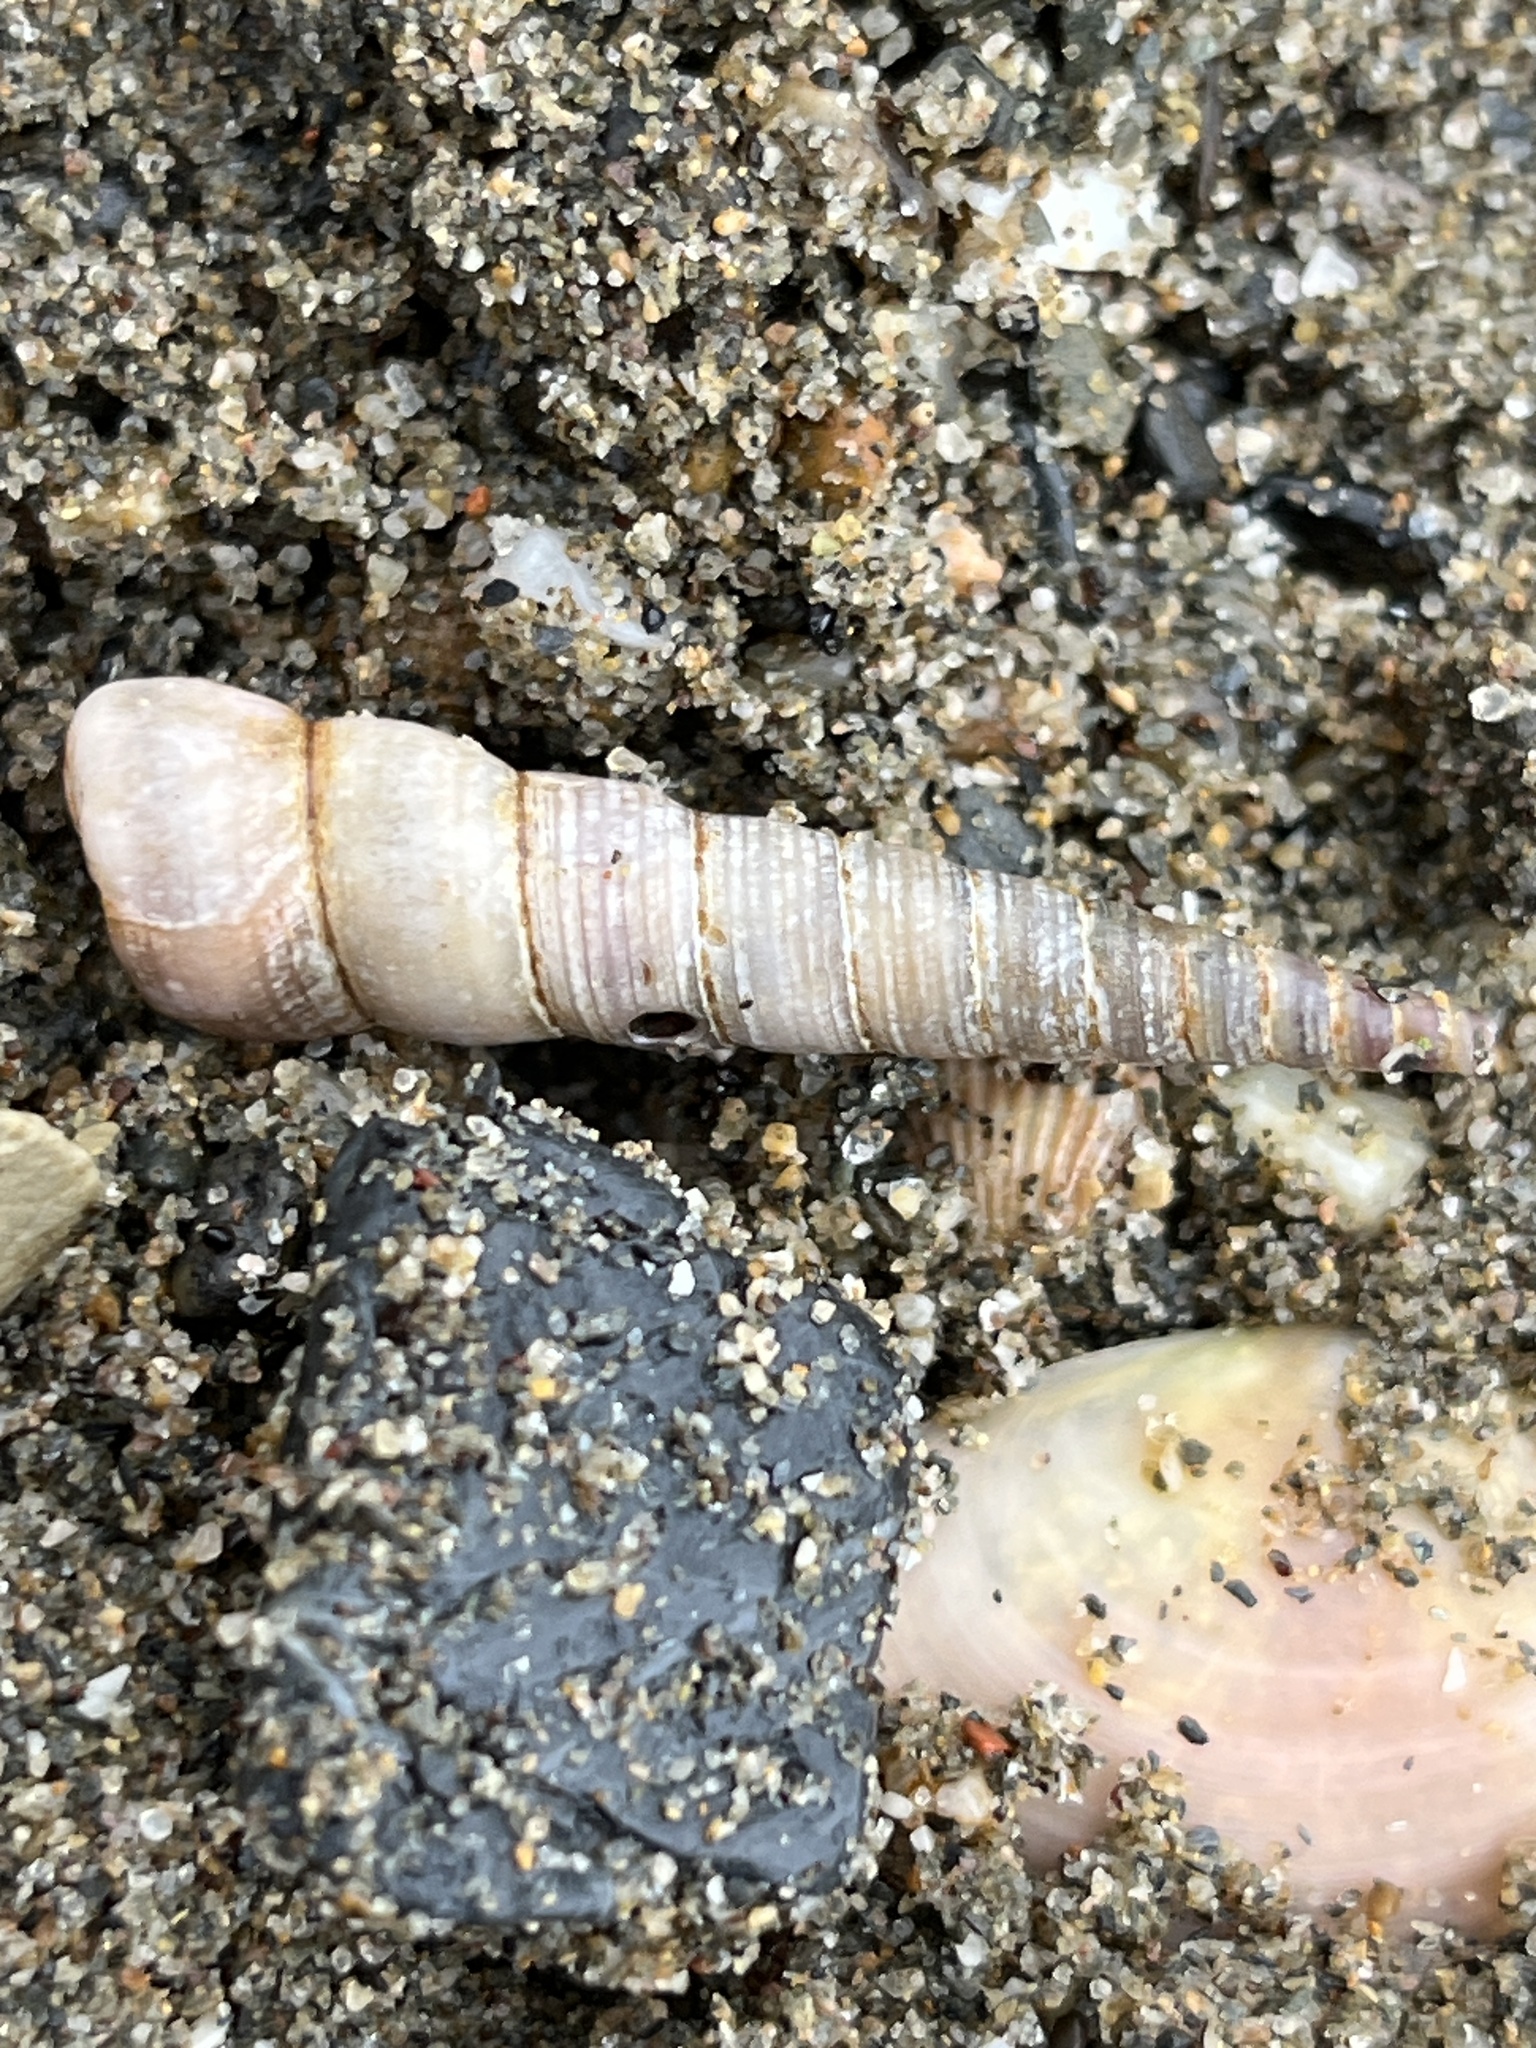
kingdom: Animalia
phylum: Mollusca
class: Gastropoda
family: Turritellidae
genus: Turritellinella
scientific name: Turritellinella tricarinata
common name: Auger shell
